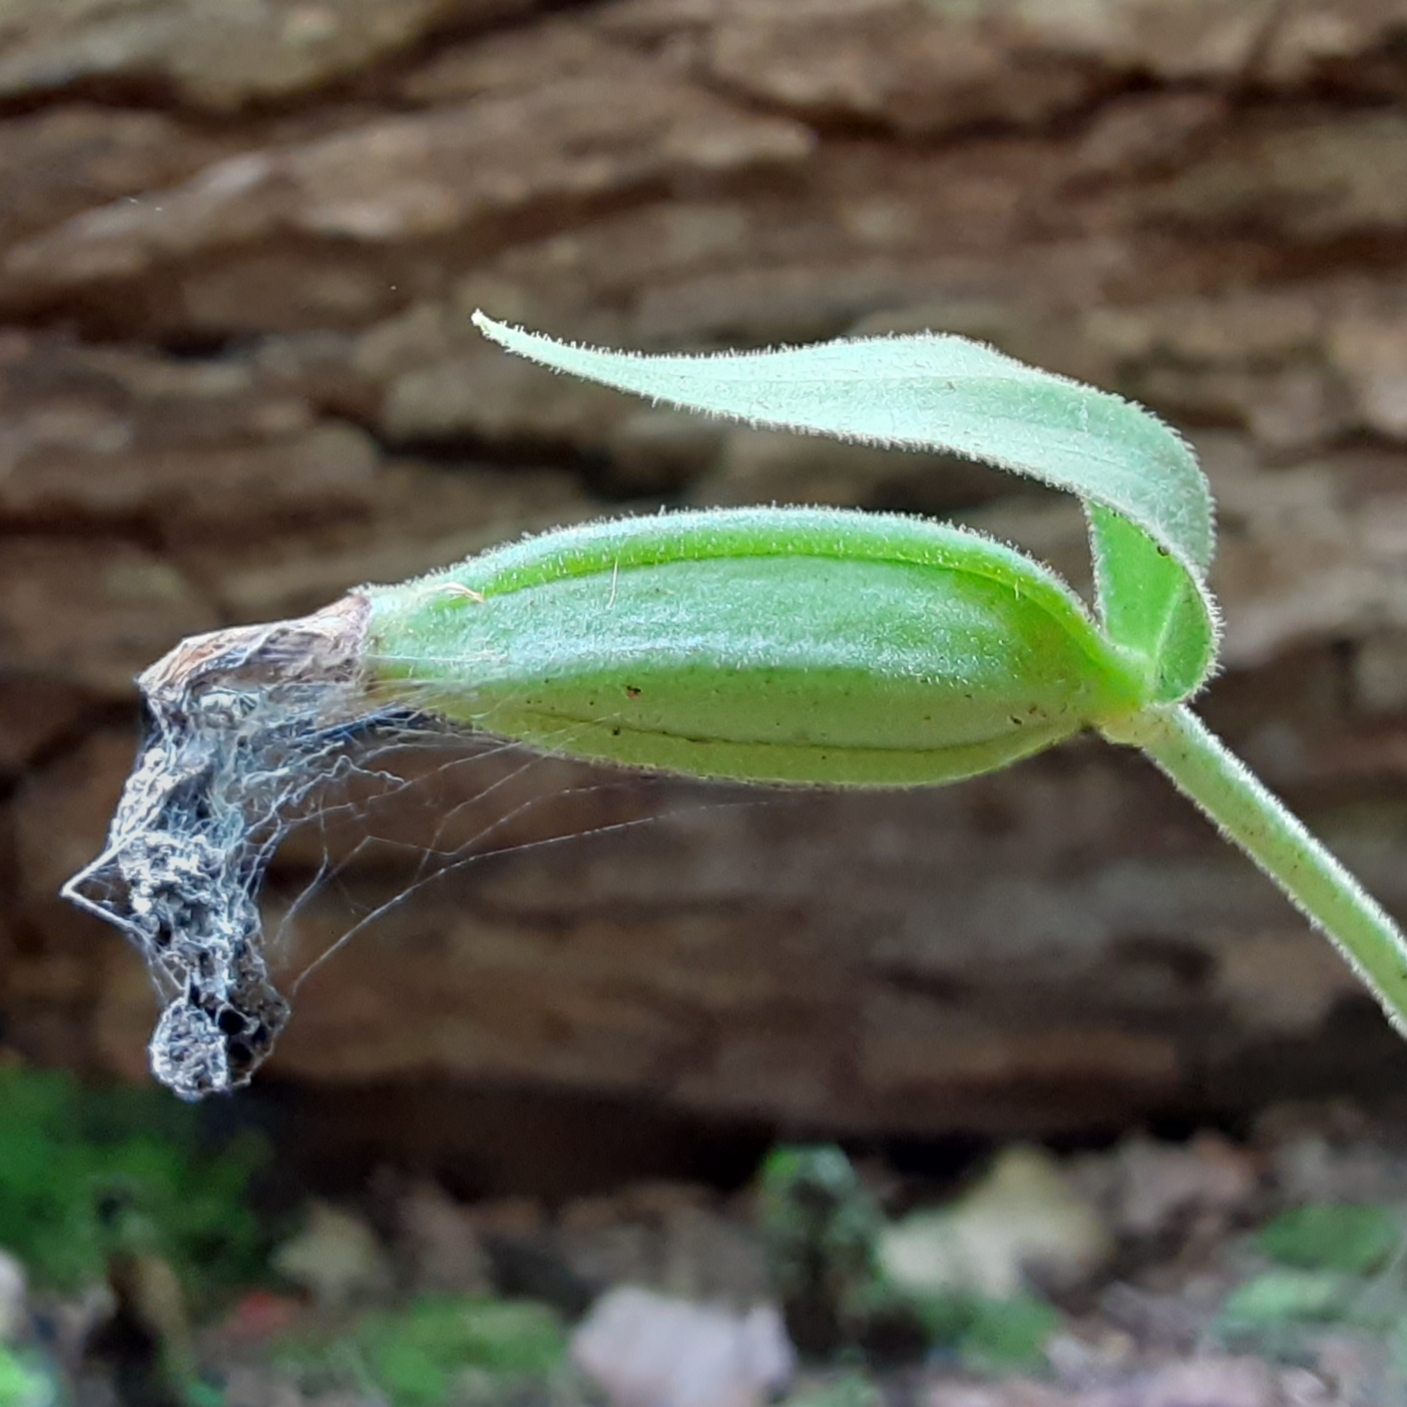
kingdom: Plantae
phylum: Tracheophyta
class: Liliopsida
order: Asparagales
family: Orchidaceae
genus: Cypripedium
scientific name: Cypripedium acaule
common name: Pink lady's-slipper
